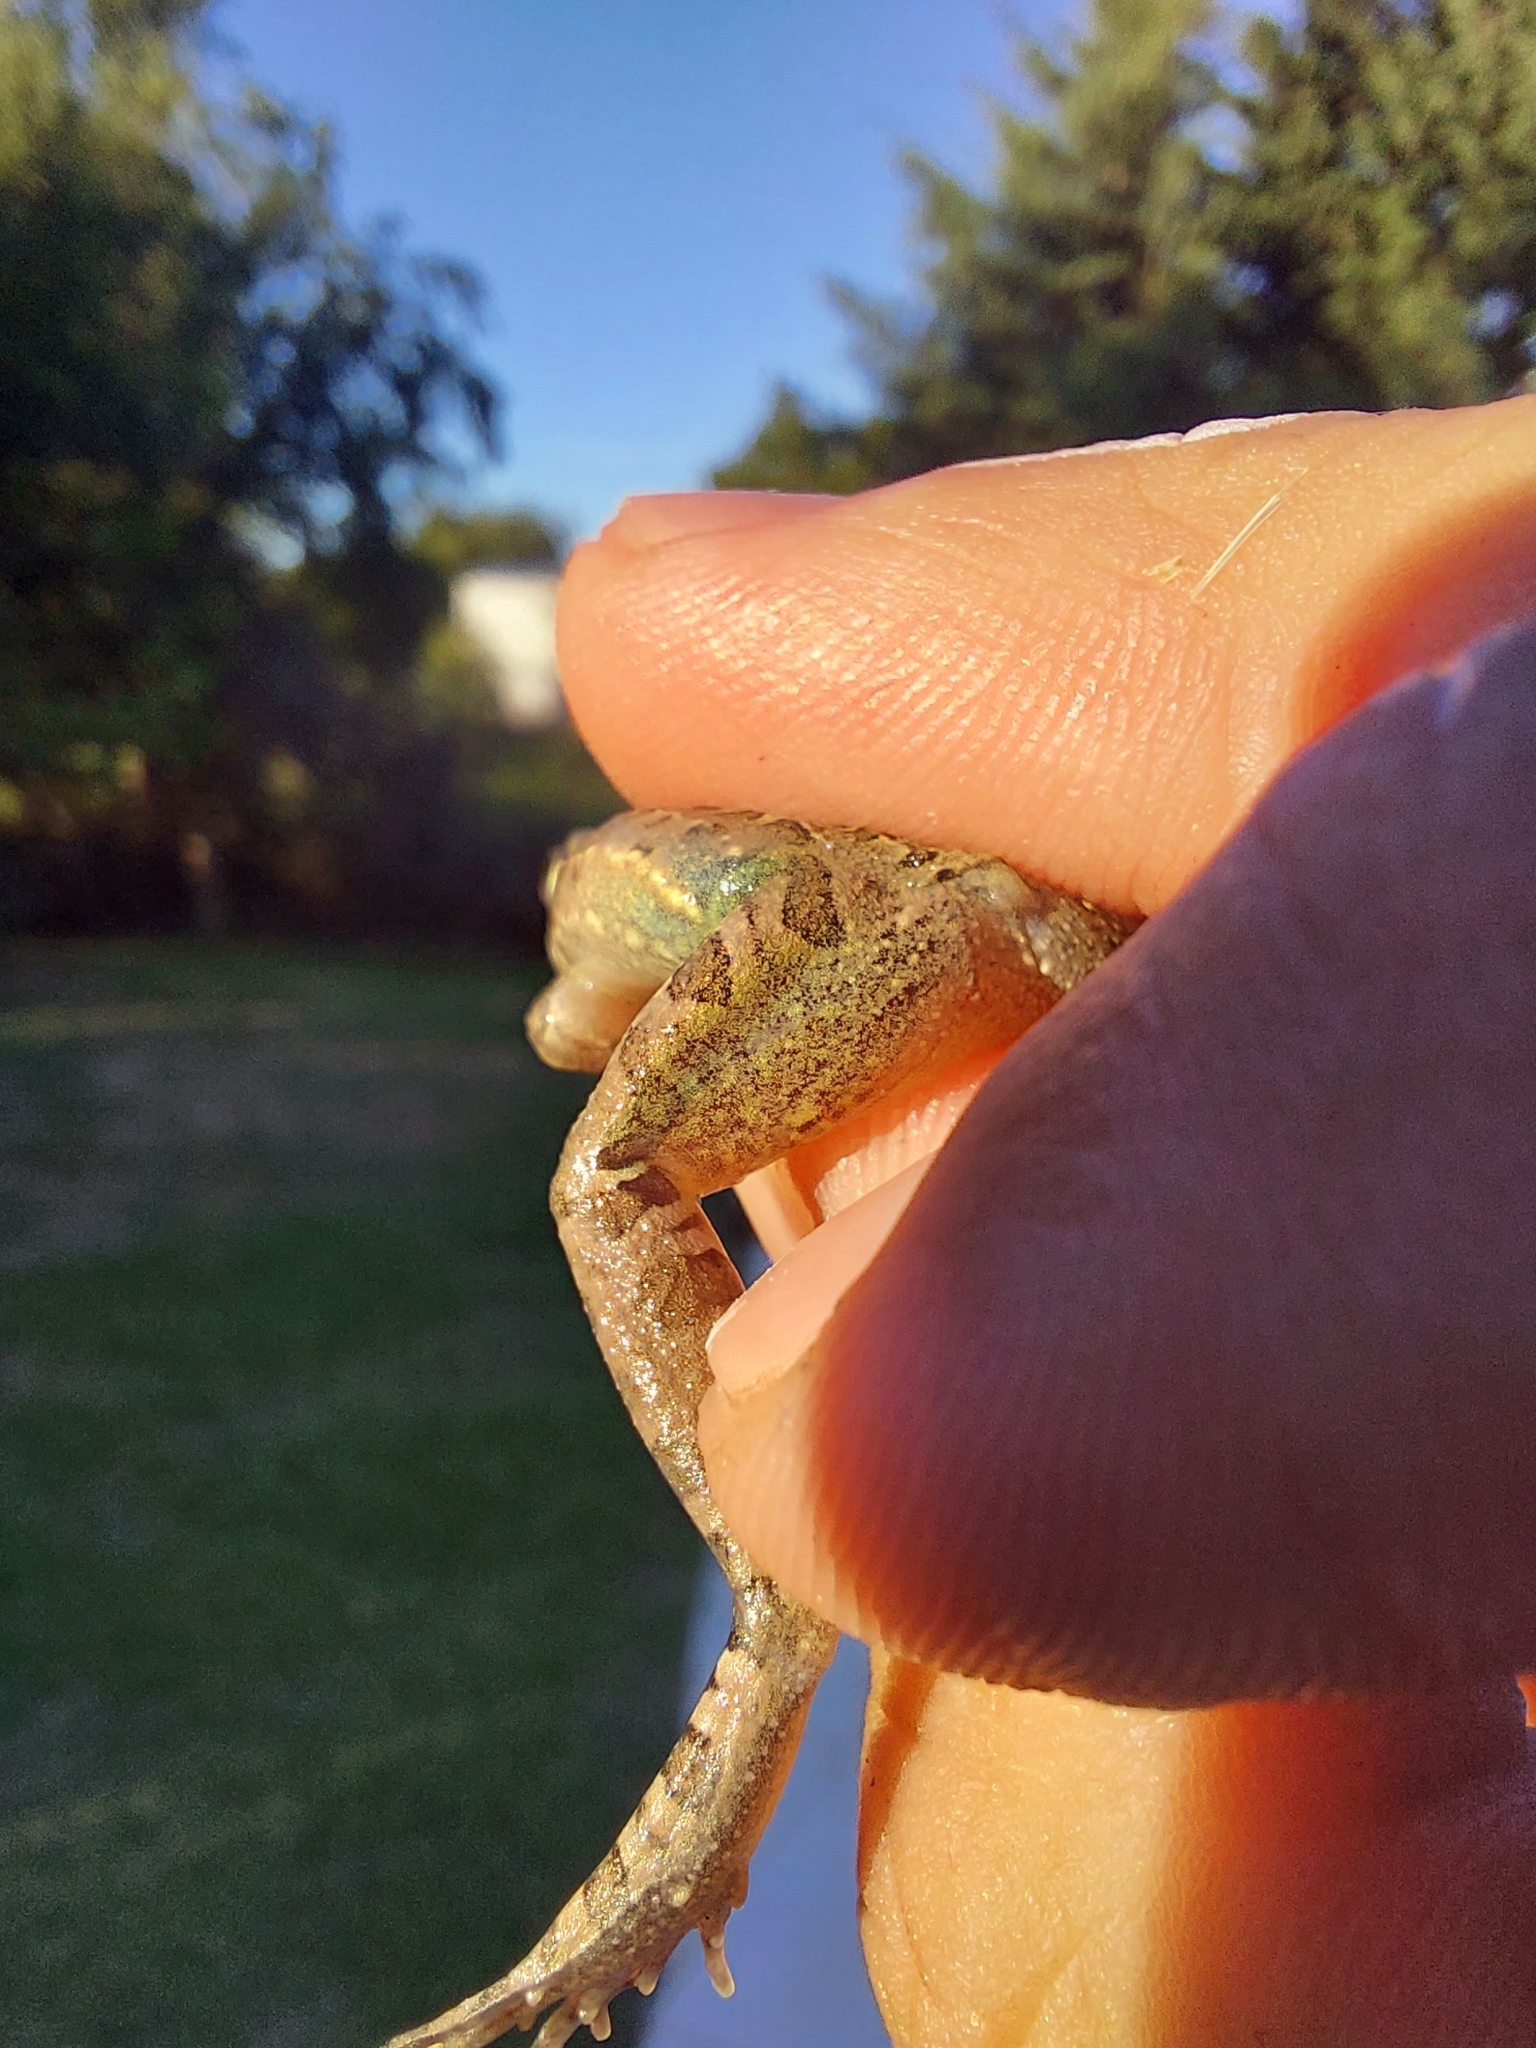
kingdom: Animalia
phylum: Chordata
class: Amphibia
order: Anura
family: Leptodactylidae
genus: Leptodactylus
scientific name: Leptodactylus macrosternum
